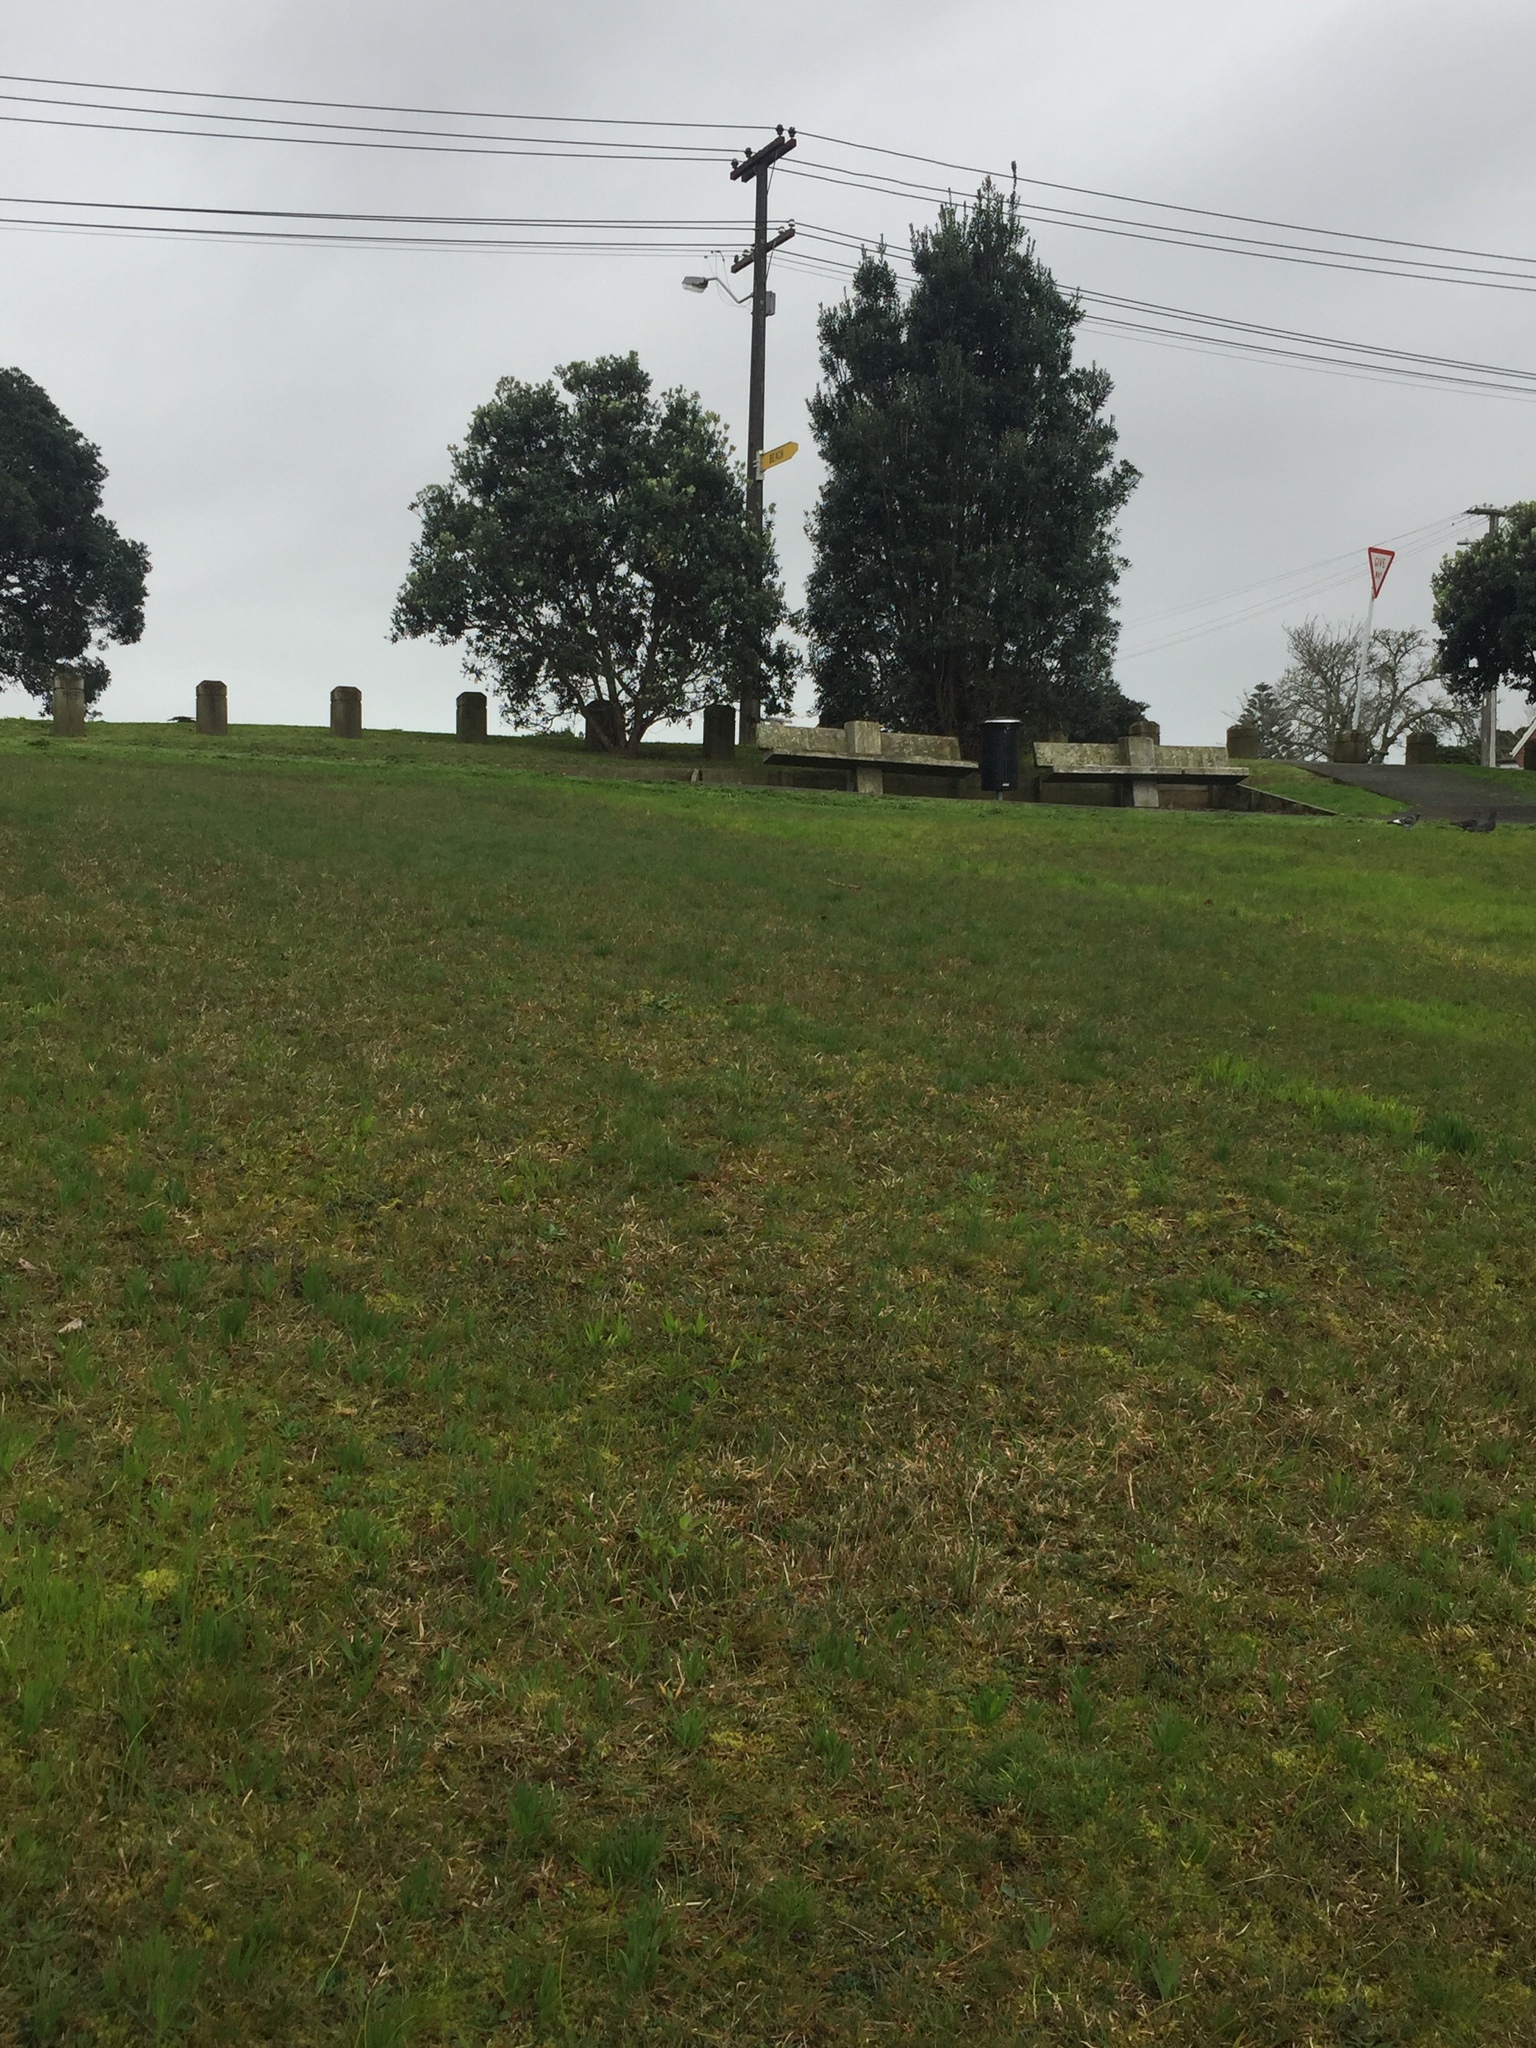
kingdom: Plantae
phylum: Tracheophyta
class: Polypodiopsida
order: Polypodiales
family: Lindsaeaceae
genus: Lindsaea
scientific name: Lindsaea linearis
